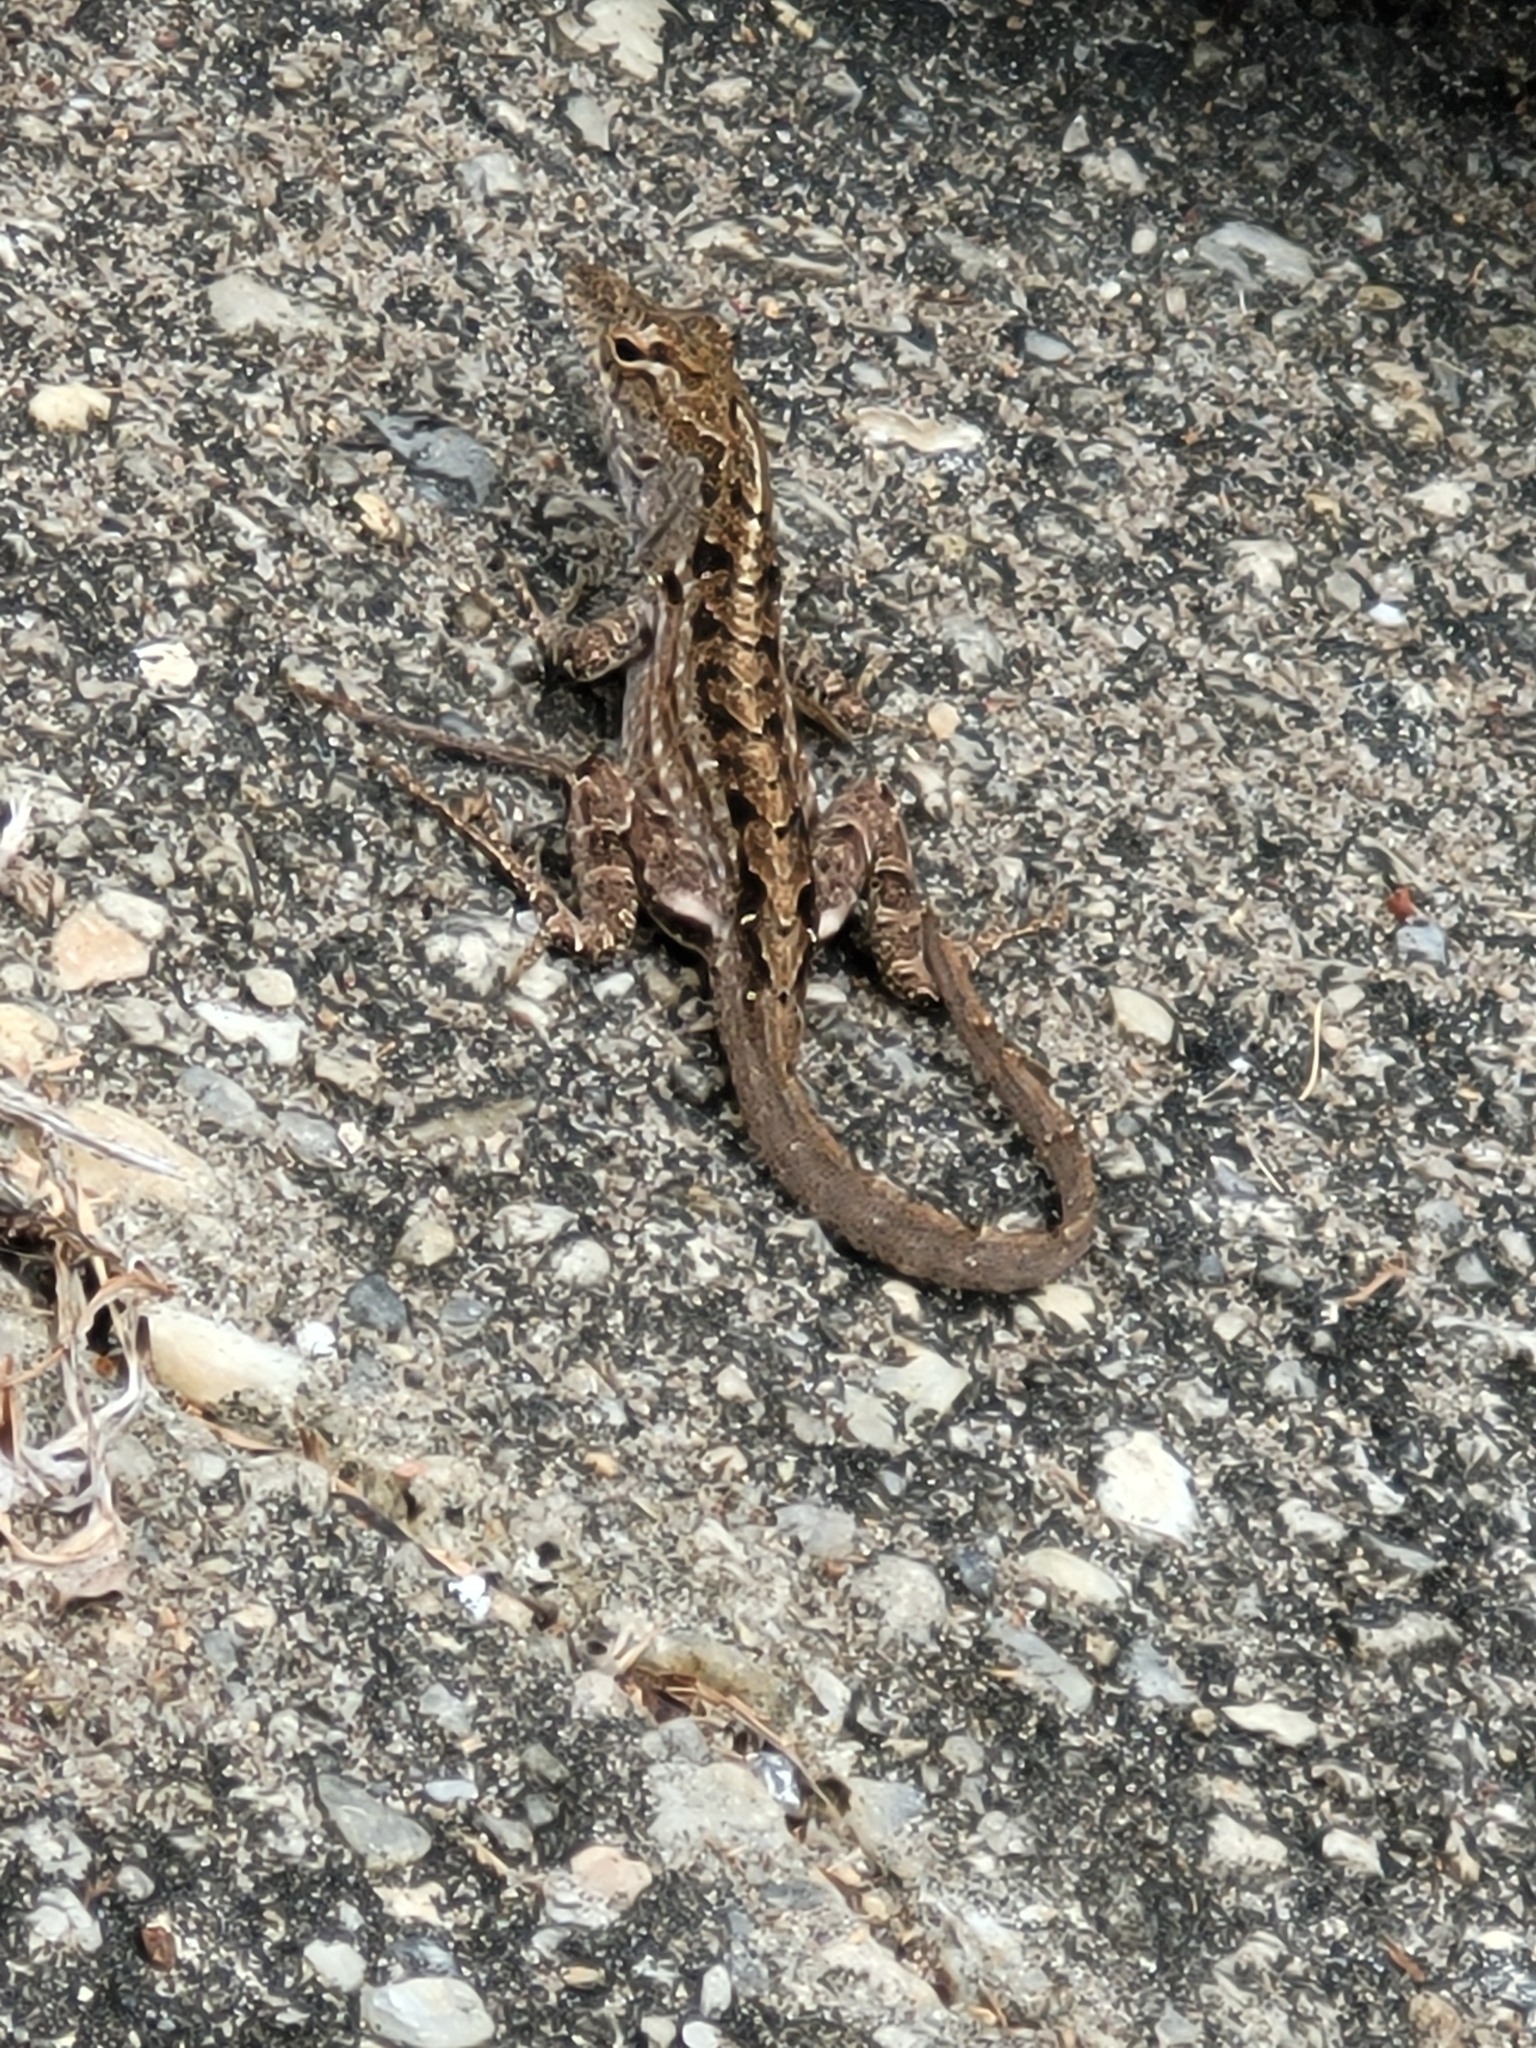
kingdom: Animalia
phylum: Chordata
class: Squamata
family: Dactyloidae
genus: Anolis
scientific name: Anolis sagrei
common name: Brown anole
